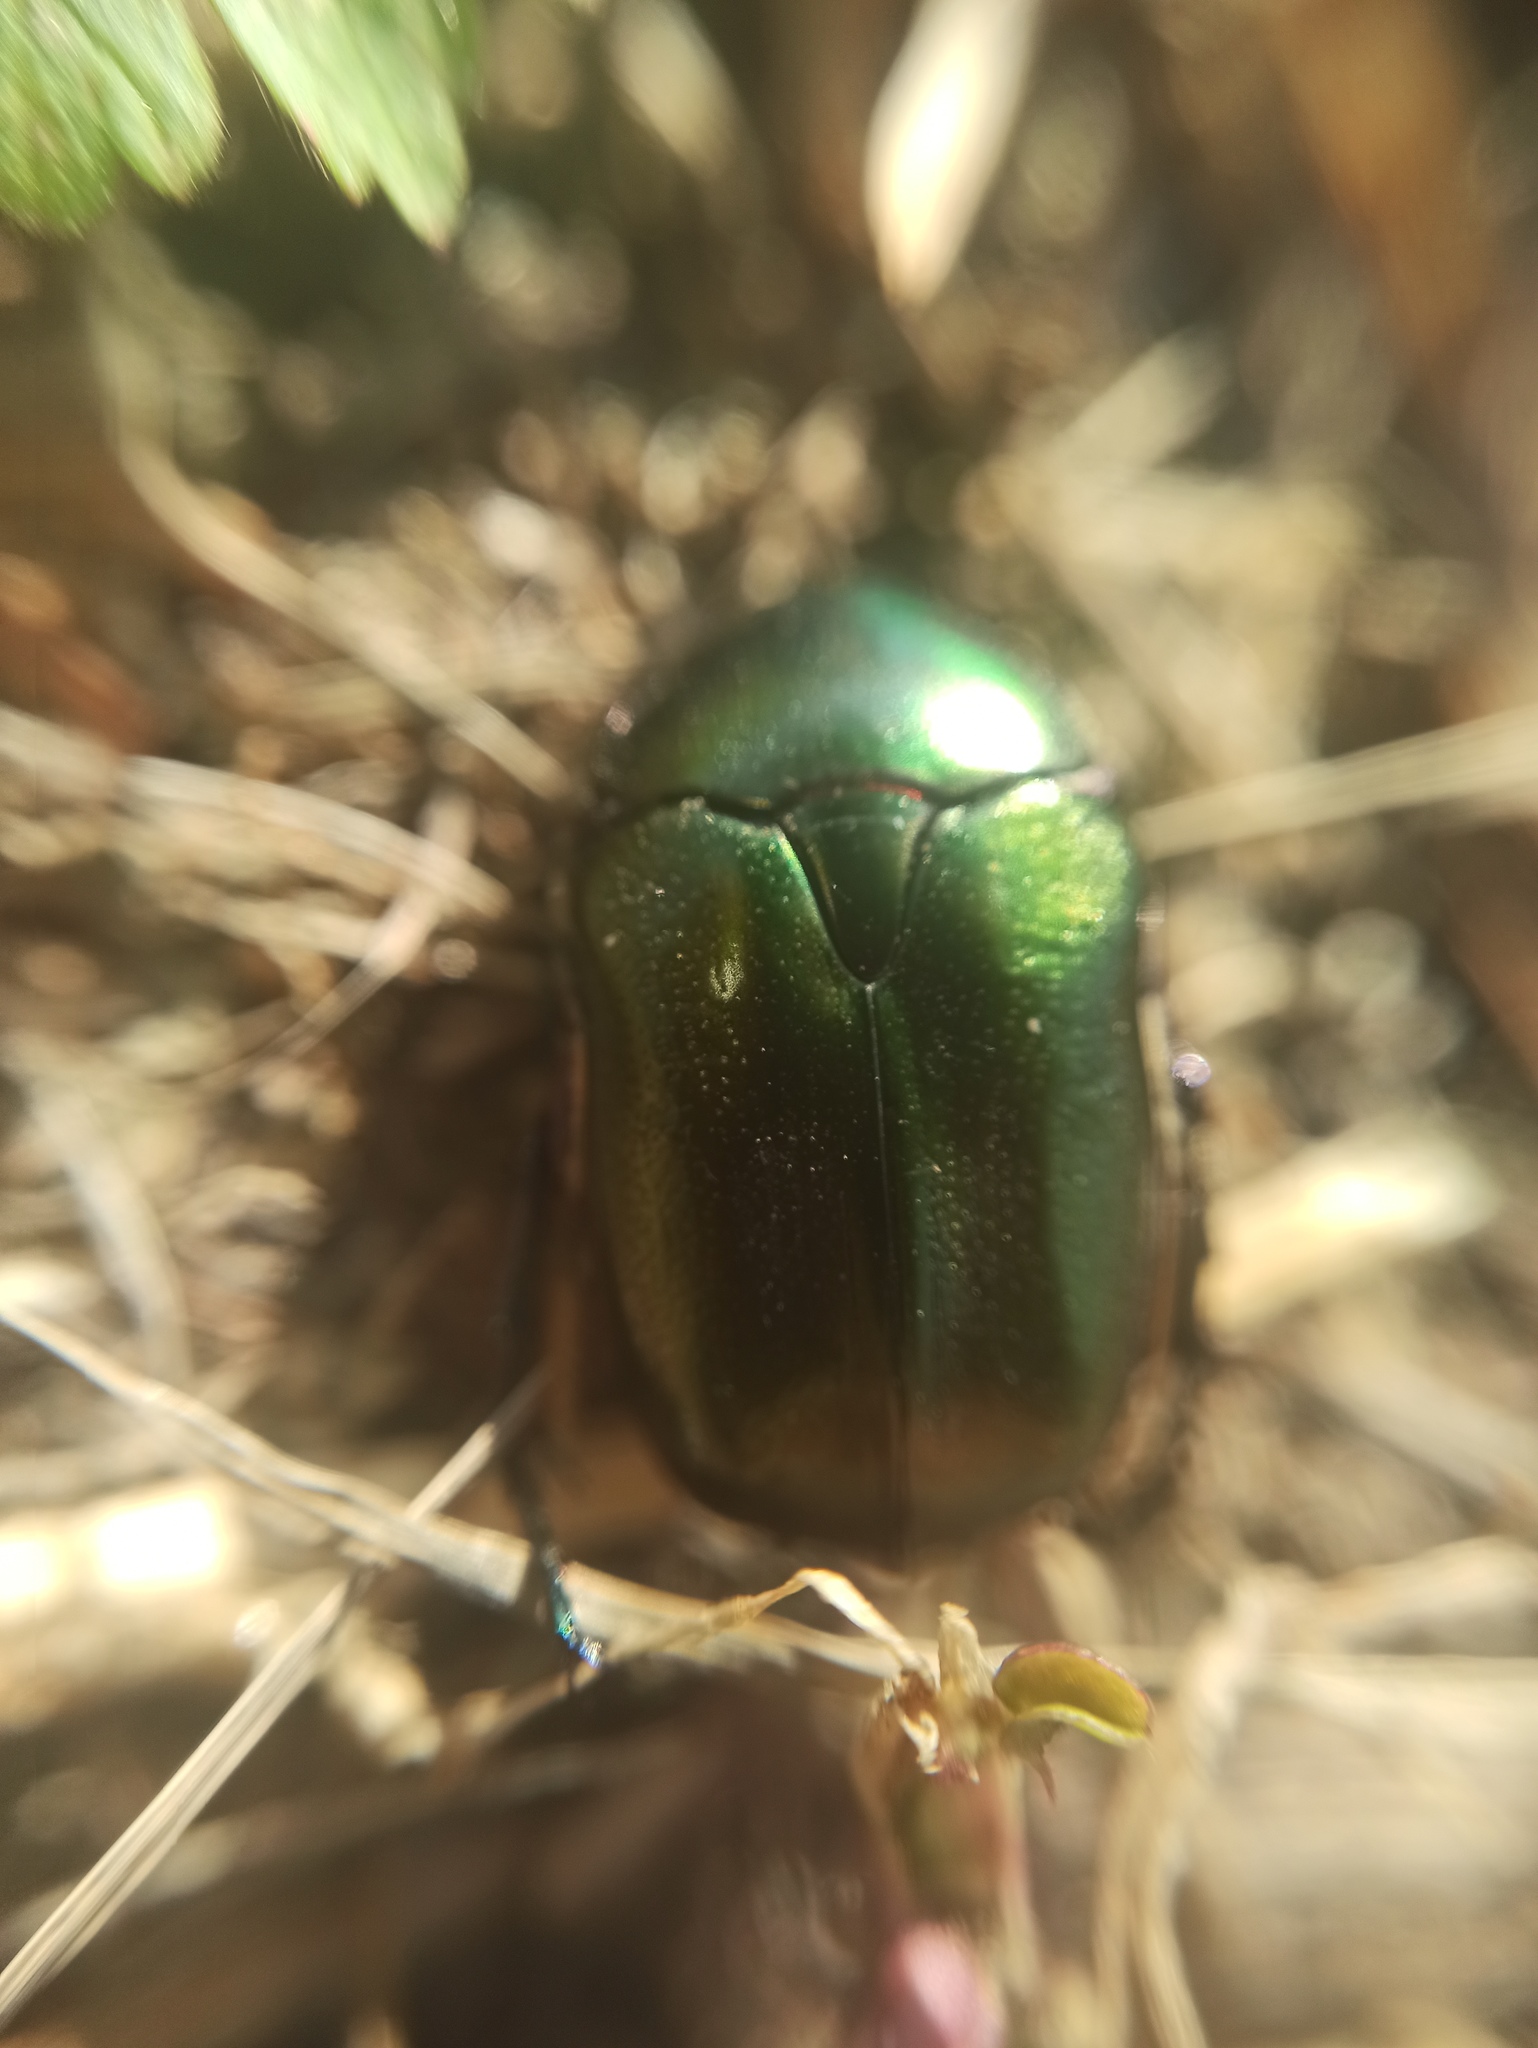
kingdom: Animalia
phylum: Arthropoda
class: Insecta
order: Coleoptera
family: Scarabaeidae
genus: Protaetia
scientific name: Protaetia cuprea
